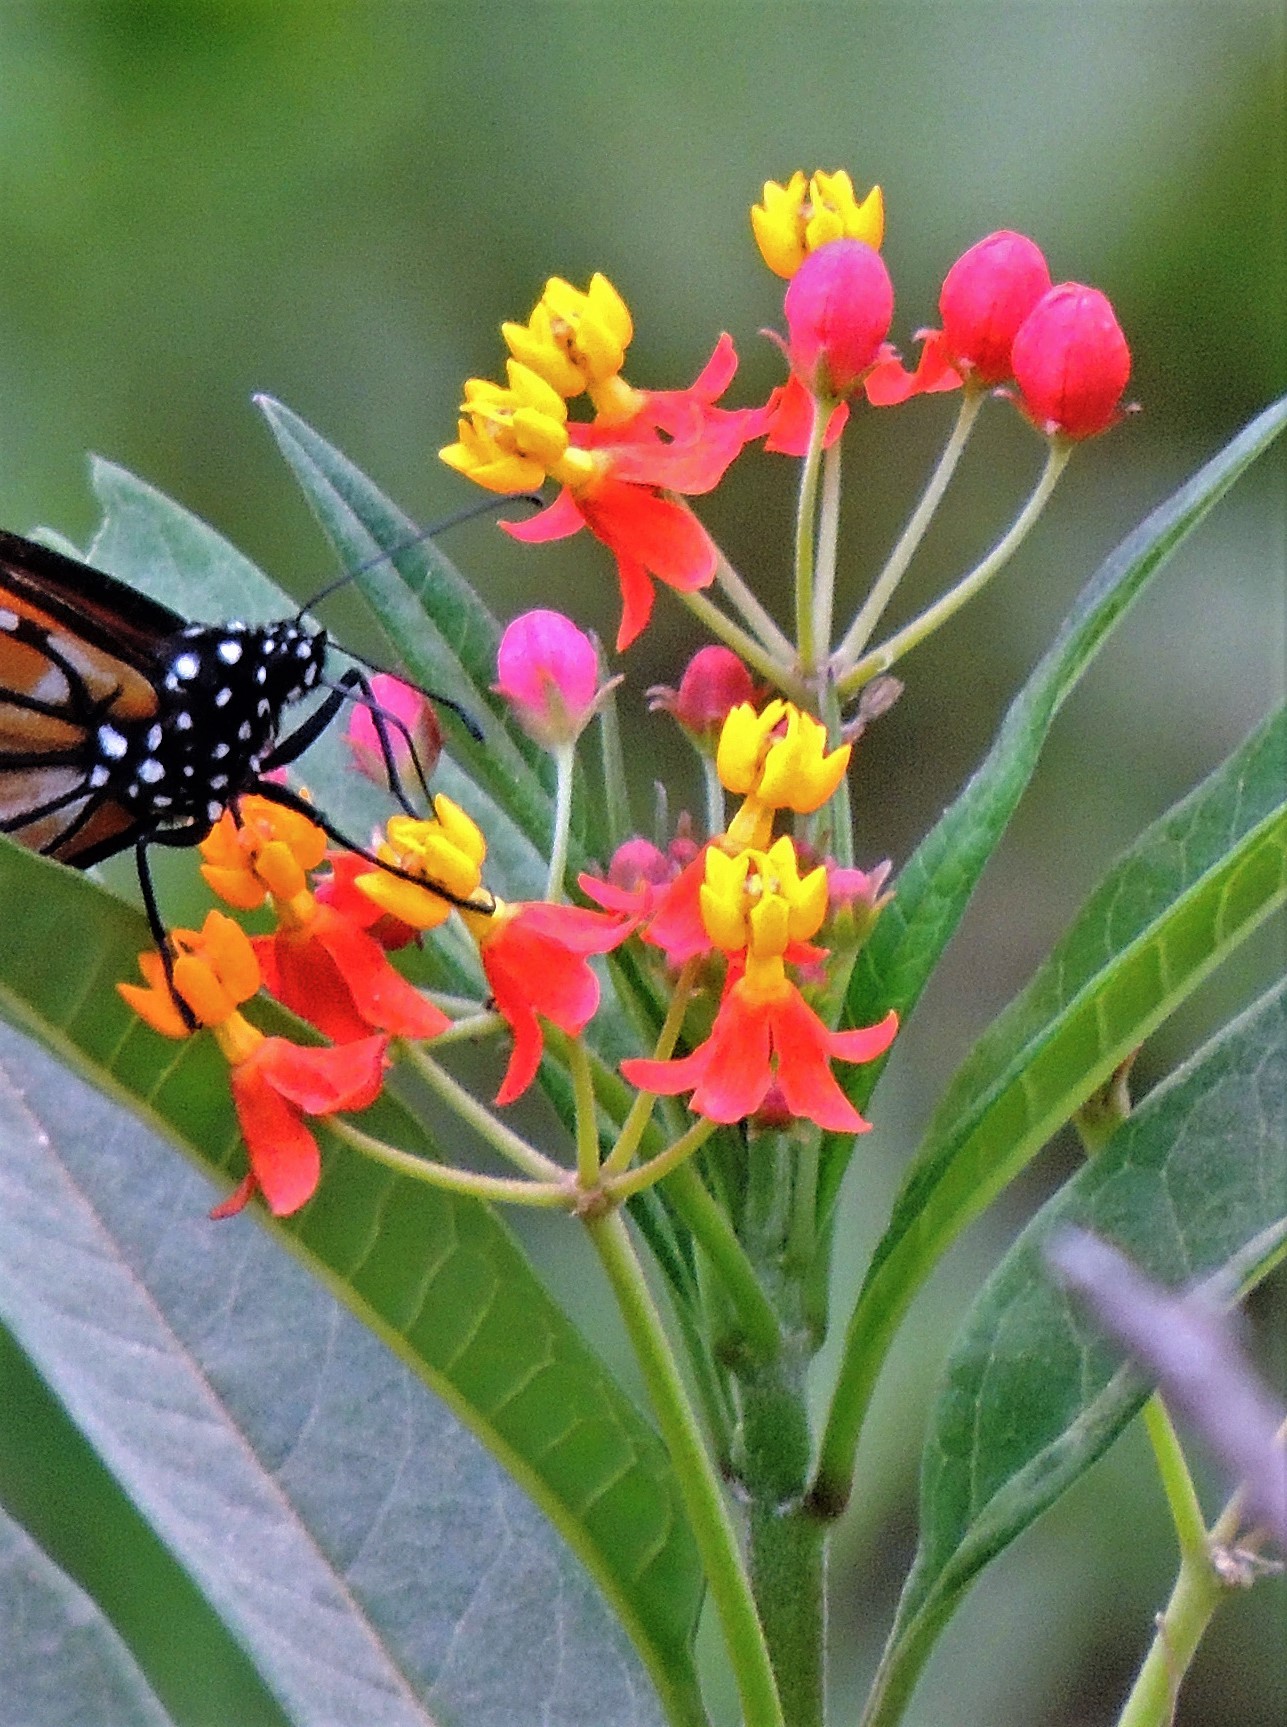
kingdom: Plantae
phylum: Tracheophyta
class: Magnoliopsida
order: Gentianales
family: Apocynaceae
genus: Asclepias
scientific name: Asclepias curassavica
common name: Bloodflower
